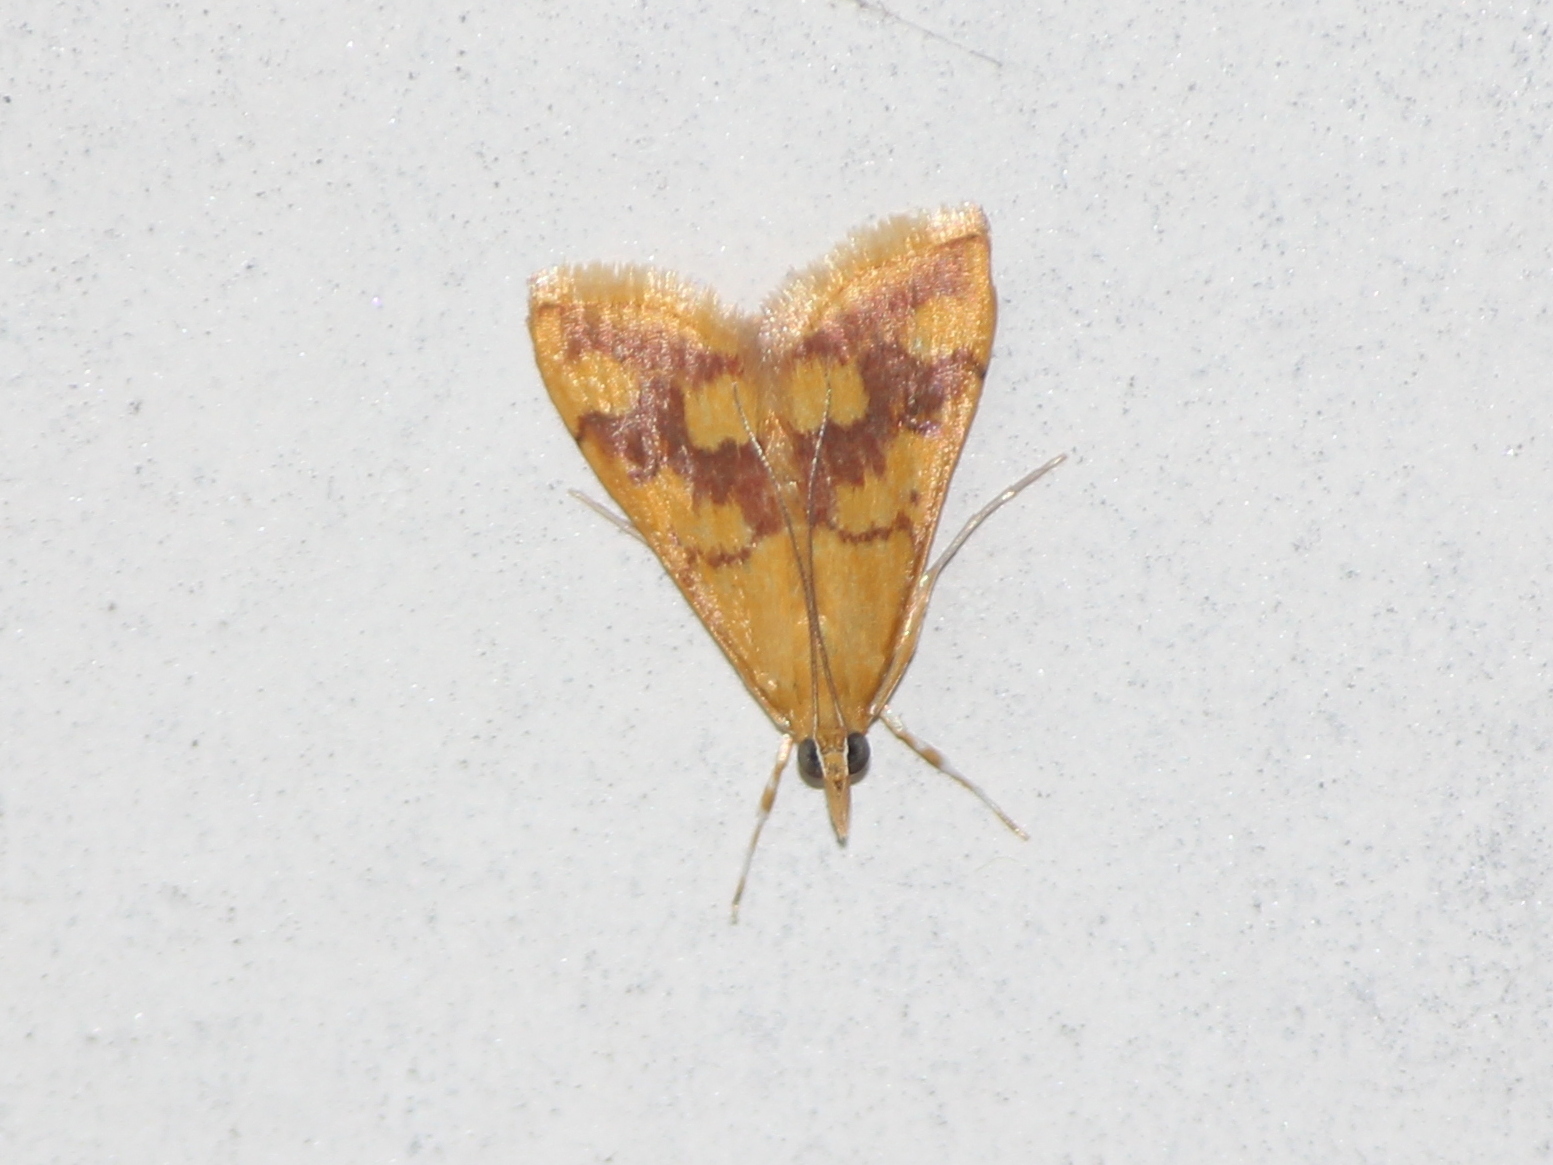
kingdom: Animalia
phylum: Arthropoda
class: Insecta
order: Lepidoptera
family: Crambidae
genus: Pyrausta
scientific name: Pyrausta phoenicealis
